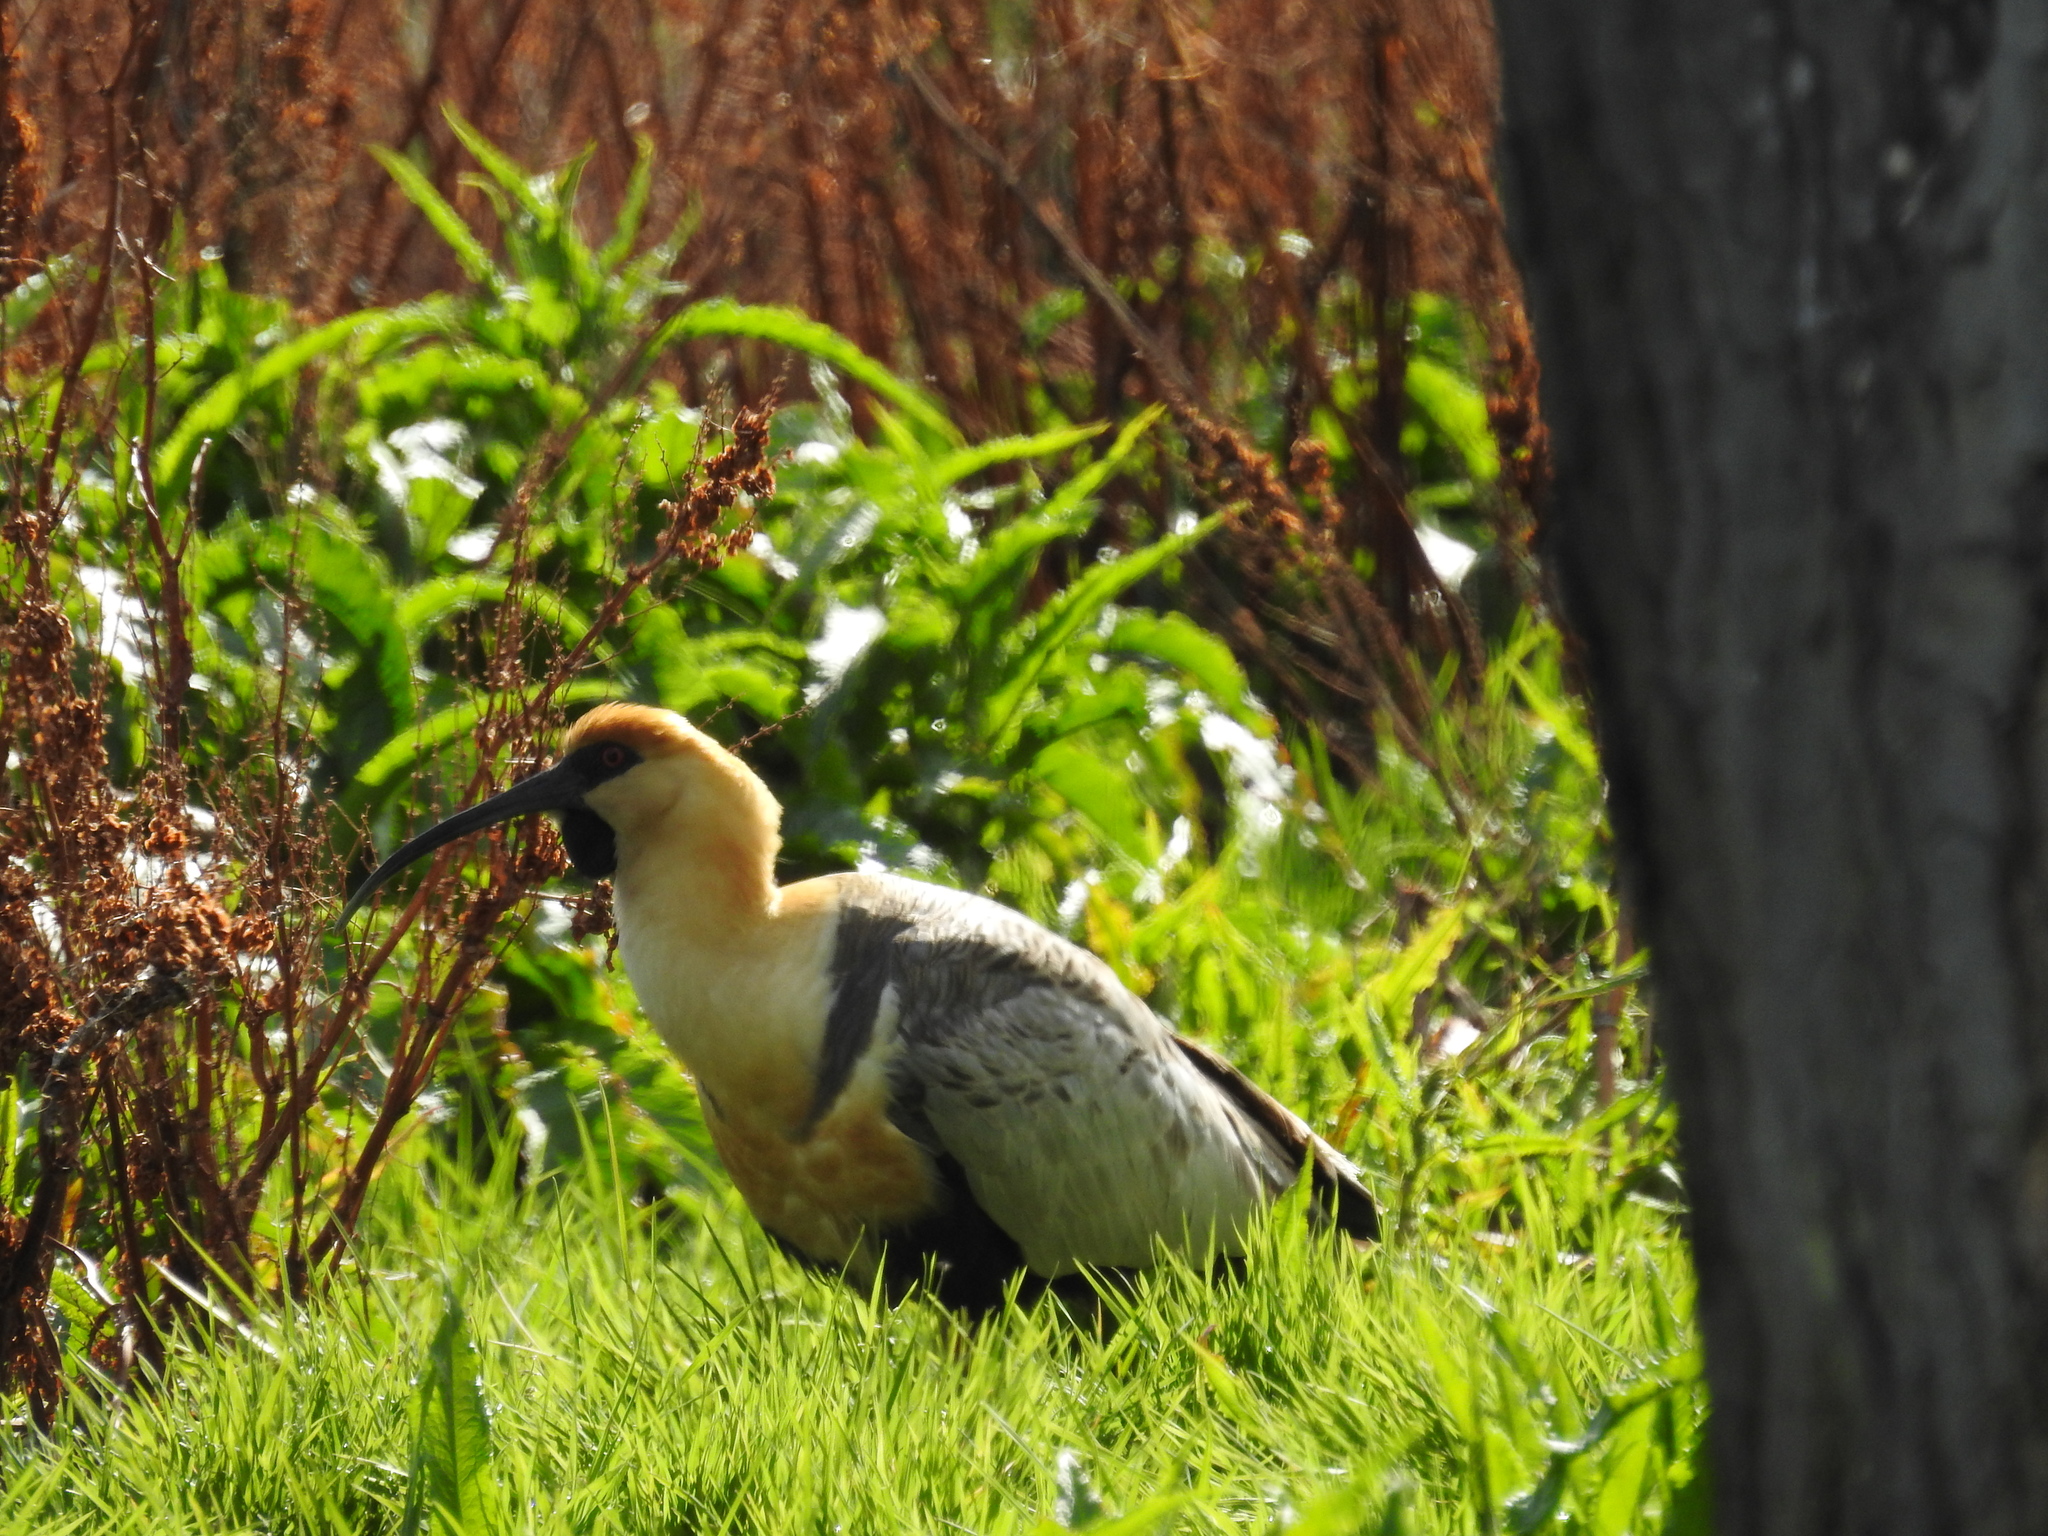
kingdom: Animalia
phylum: Chordata
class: Aves
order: Pelecaniformes
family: Threskiornithidae
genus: Theristicus
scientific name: Theristicus melanopis
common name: Black-faced ibis
